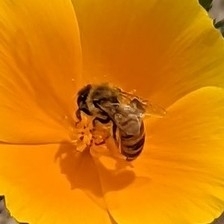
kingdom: Animalia
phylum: Arthropoda
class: Insecta
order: Hymenoptera
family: Apidae
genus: Apis
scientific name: Apis mellifera
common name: Honey bee
